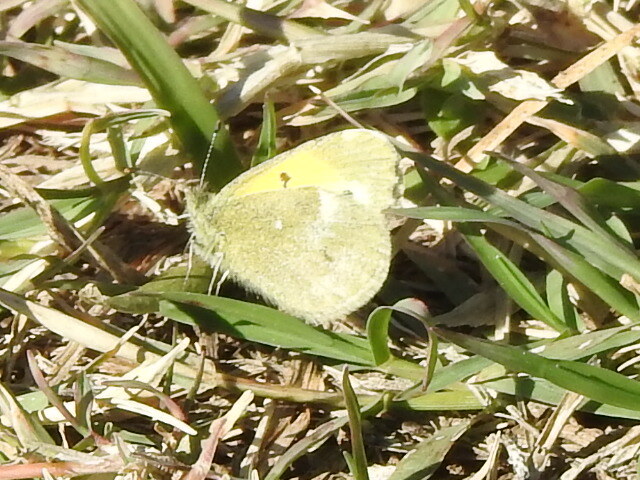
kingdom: Animalia
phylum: Arthropoda
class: Insecta
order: Lepidoptera
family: Pieridae
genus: Nathalis
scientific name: Nathalis iole
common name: Dainty sulphur
